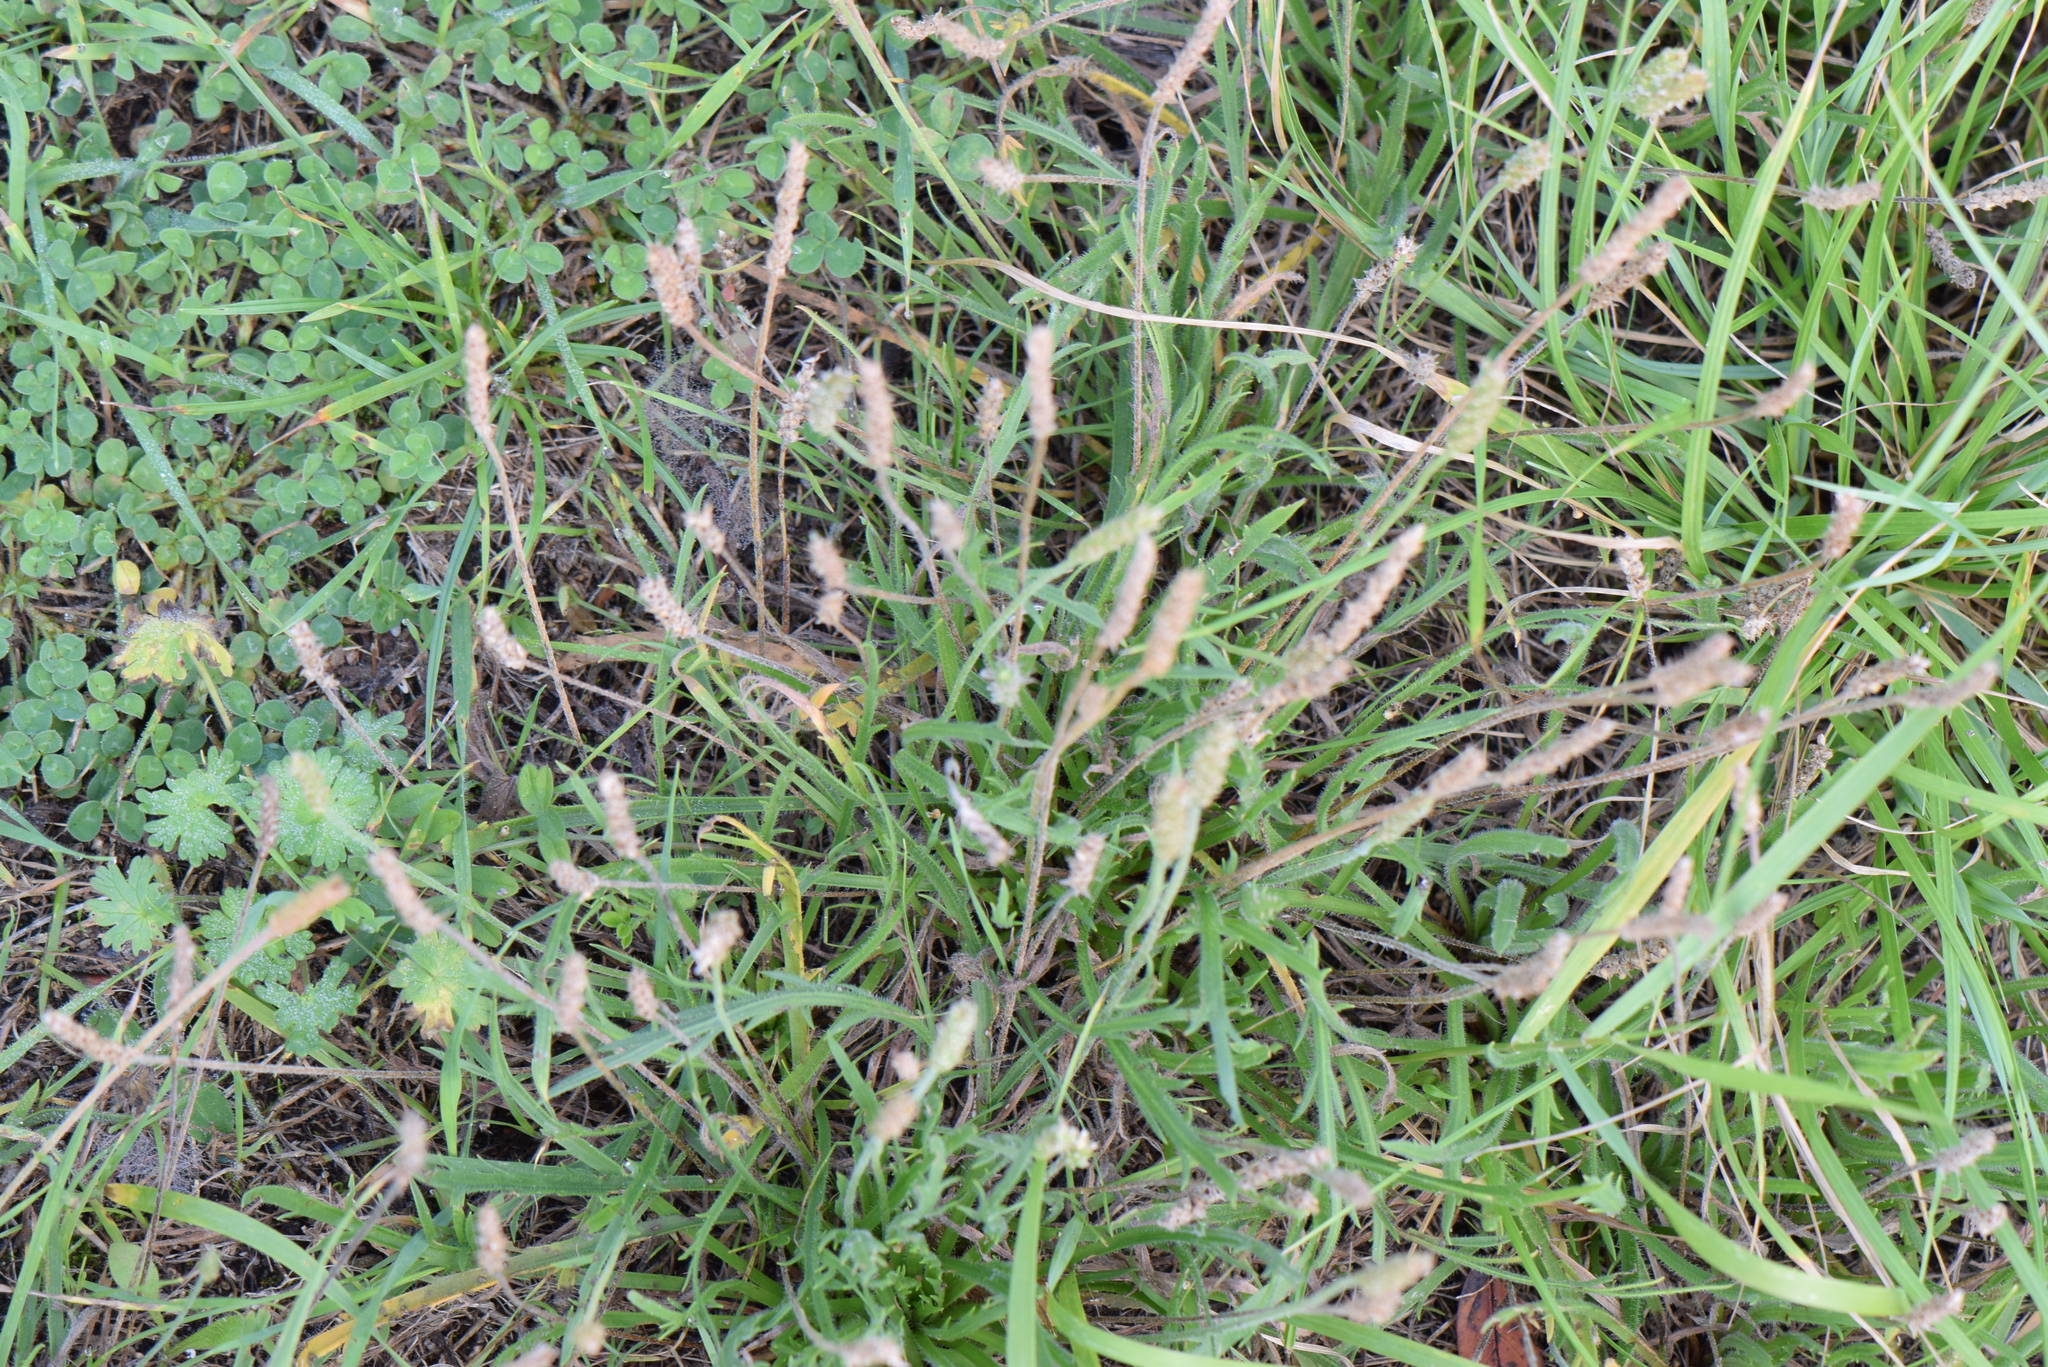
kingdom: Plantae
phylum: Tracheophyta
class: Magnoliopsida
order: Lamiales
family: Plantaginaceae
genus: Plantago
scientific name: Plantago coronopus
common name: Buck's-horn plantain
